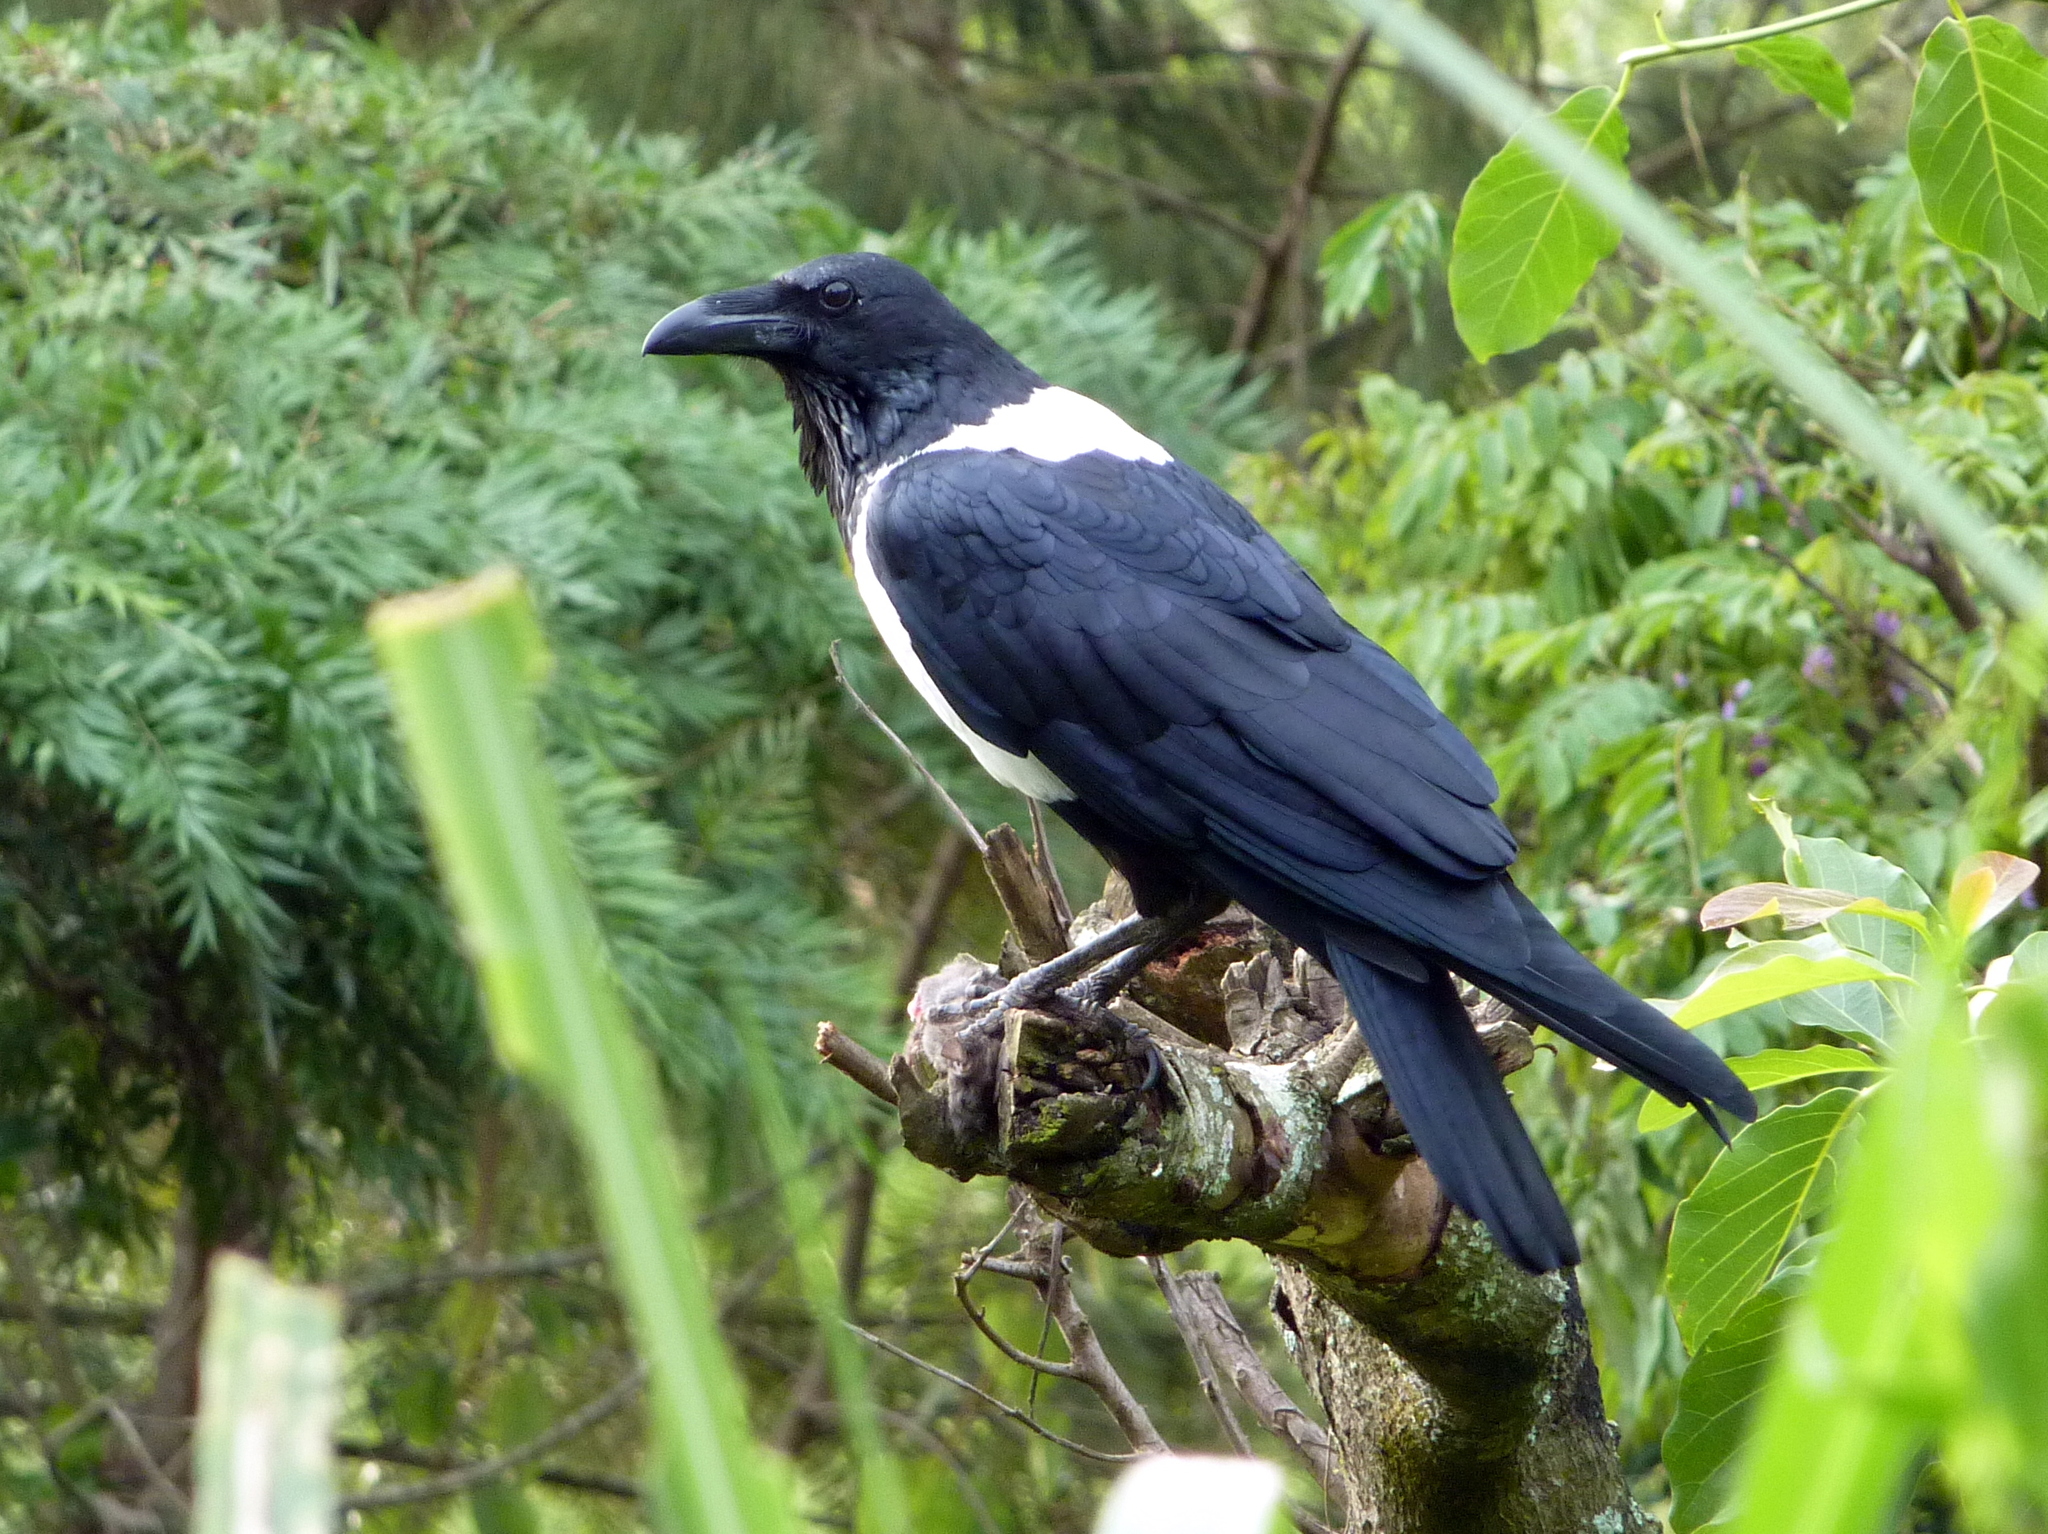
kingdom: Animalia
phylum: Chordata
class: Aves
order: Passeriformes
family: Corvidae
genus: Corvus
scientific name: Corvus albus
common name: Pied crow
